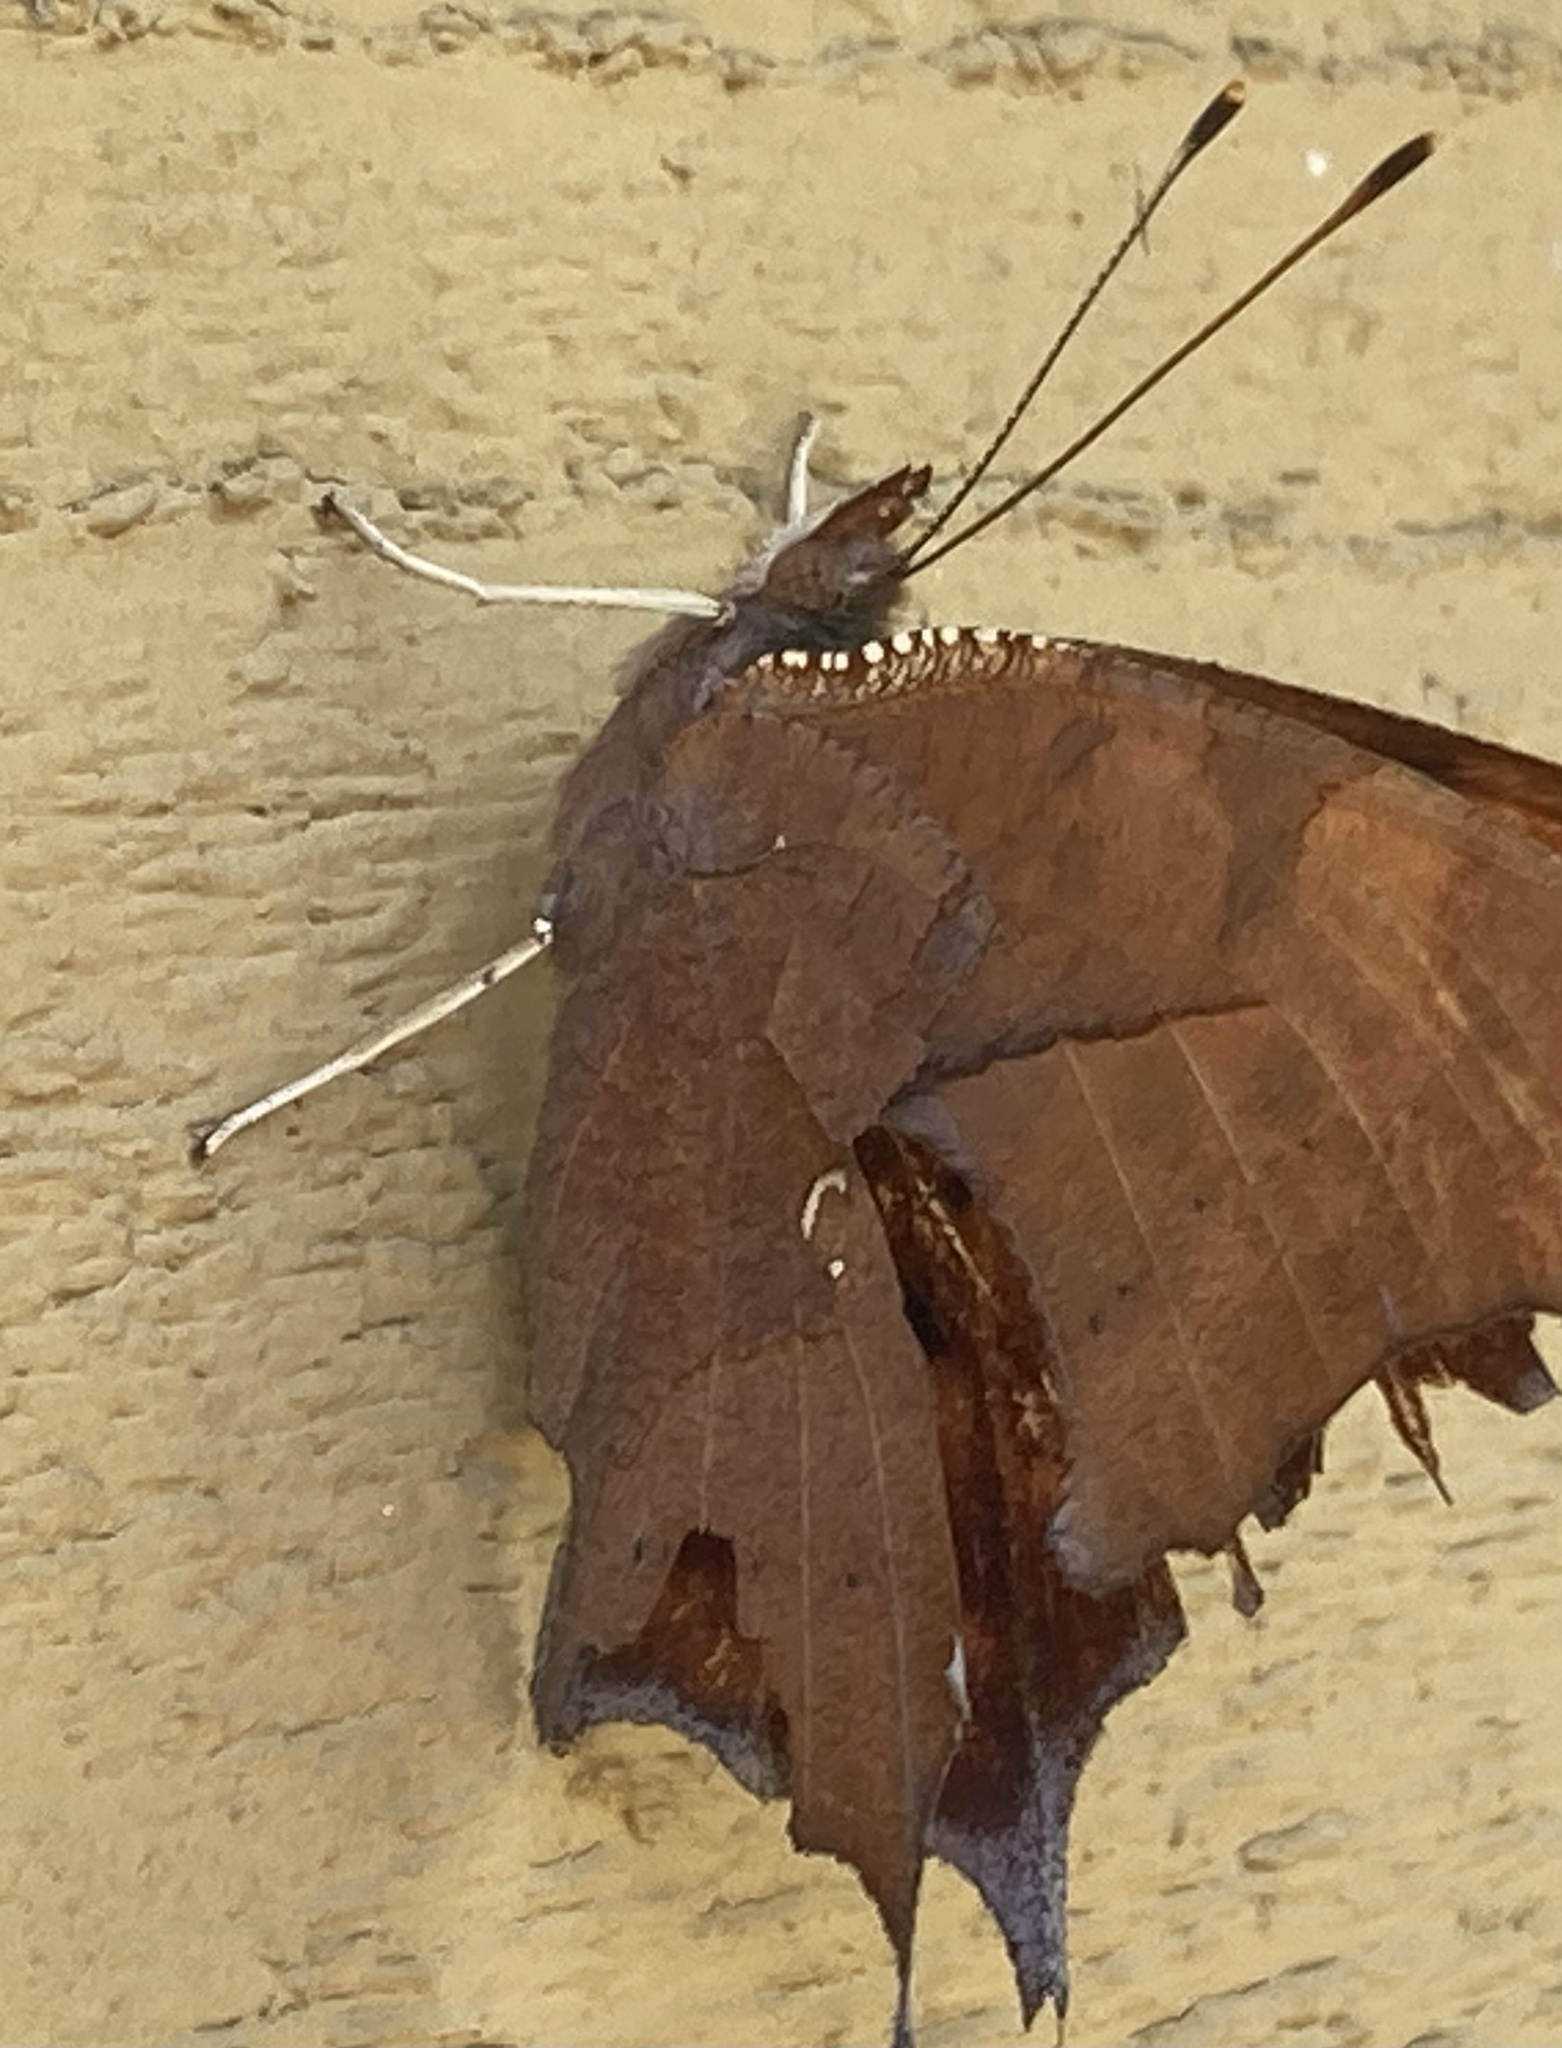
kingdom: Animalia
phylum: Arthropoda
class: Insecta
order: Lepidoptera
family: Nymphalidae
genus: Polygonia
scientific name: Polygonia interrogationis
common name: Question mark
